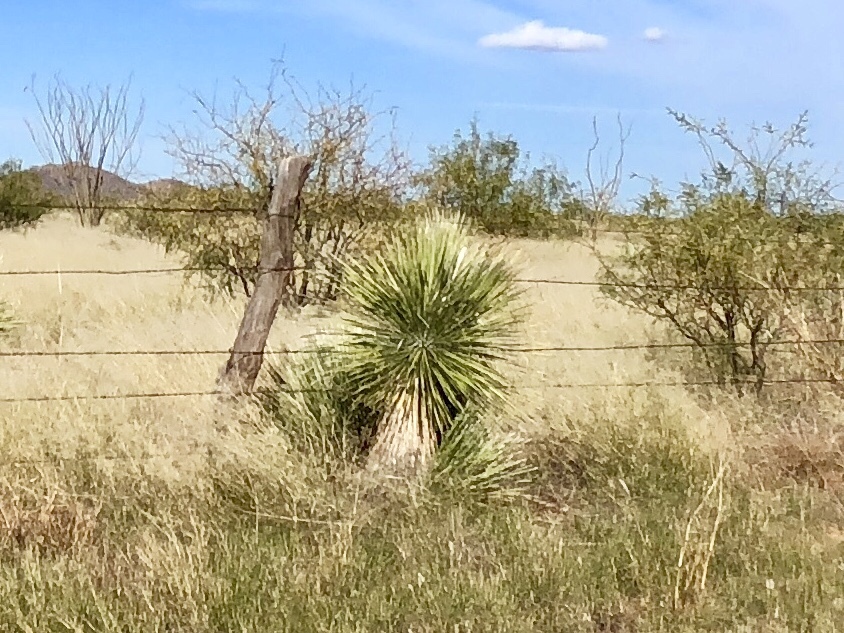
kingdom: Plantae
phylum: Tracheophyta
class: Liliopsida
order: Asparagales
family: Asparagaceae
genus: Yucca
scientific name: Yucca elata
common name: Palmella
